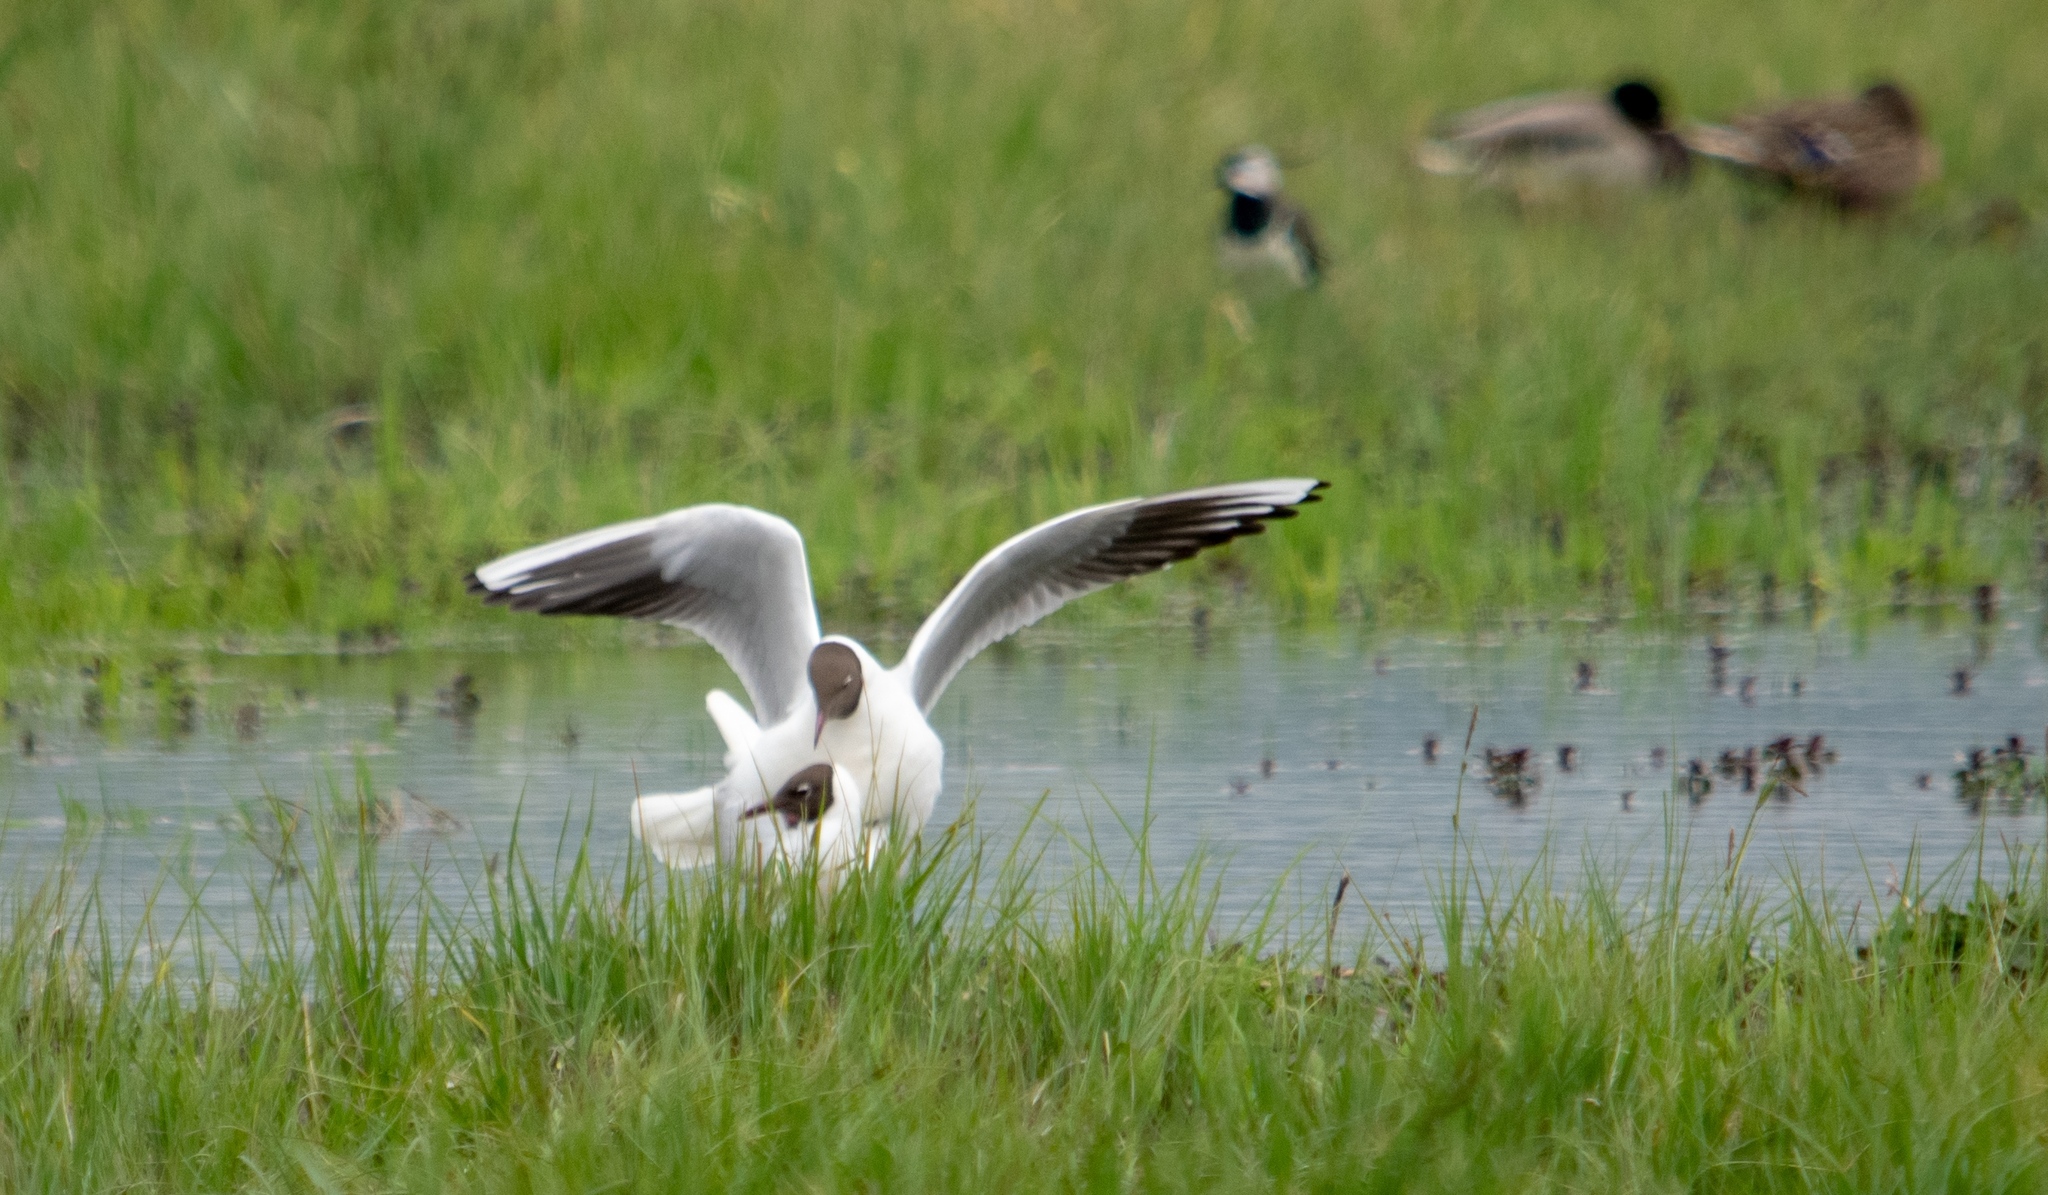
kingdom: Animalia
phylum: Chordata
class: Aves
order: Charadriiformes
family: Laridae
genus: Chroicocephalus
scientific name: Chroicocephalus ridibundus
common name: Black-headed gull
